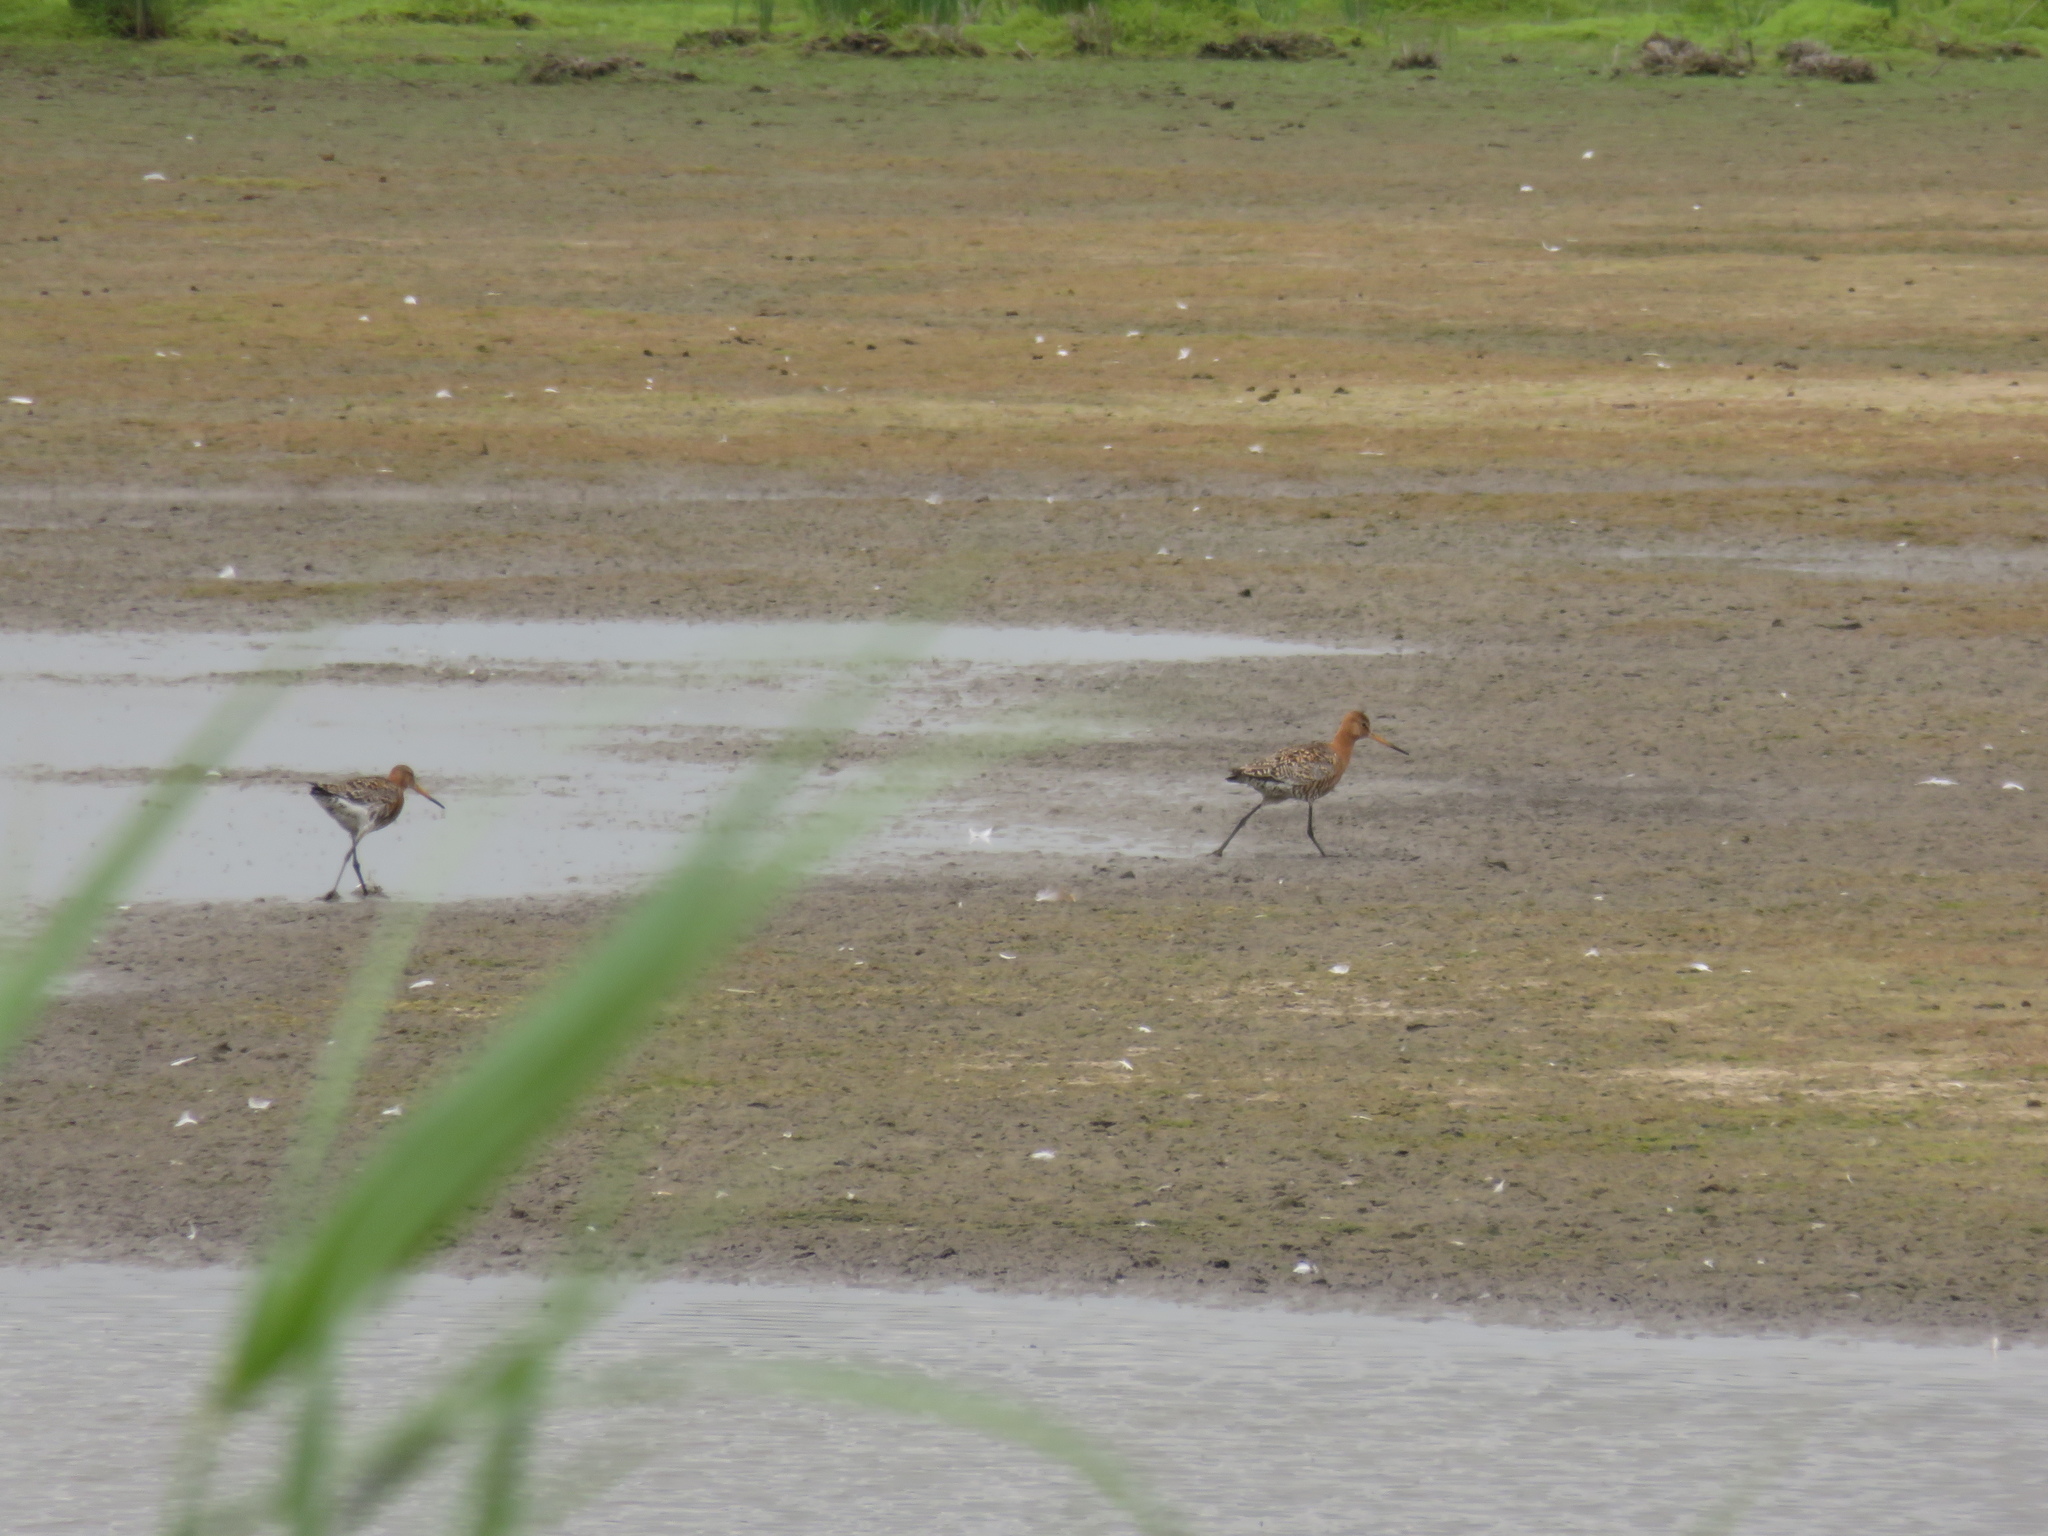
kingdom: Animalia
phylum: Chordata
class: Aves
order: Charadriiformes
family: Scolopacidae
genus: Limosa
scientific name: Limosa limosa
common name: Black-tailed godwit
